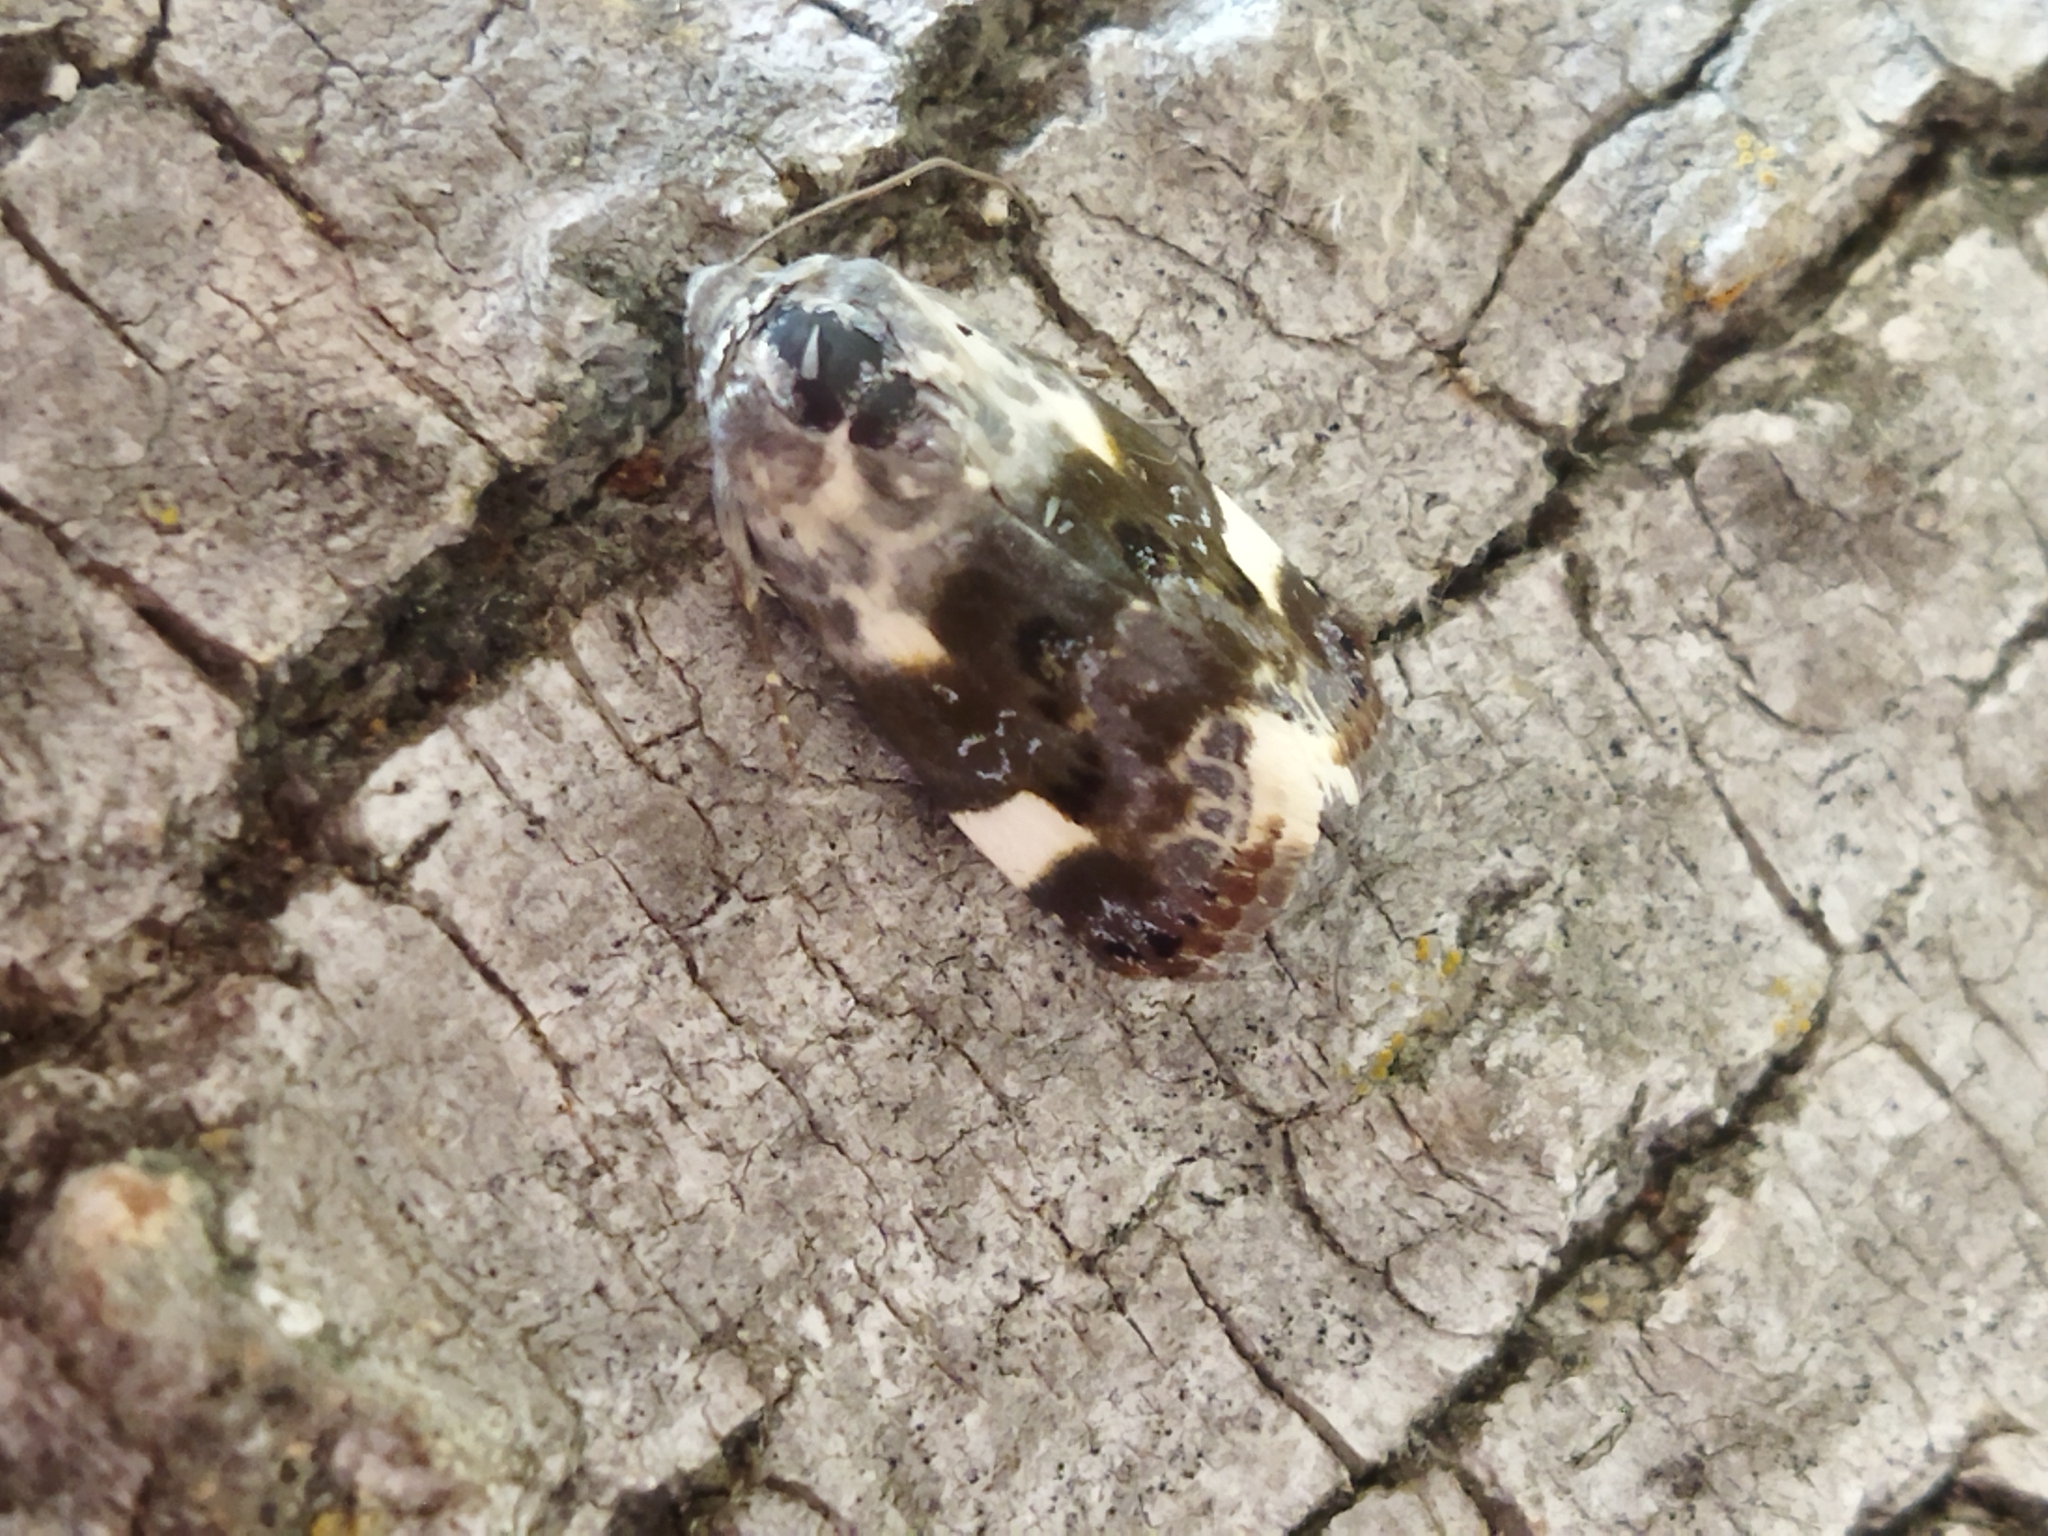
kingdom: Animalia
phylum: Arthropoda
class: Insecta
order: Lepidoptera
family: Noctuidae
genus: Acontia
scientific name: Acontia lucida
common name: Pale shoulder
